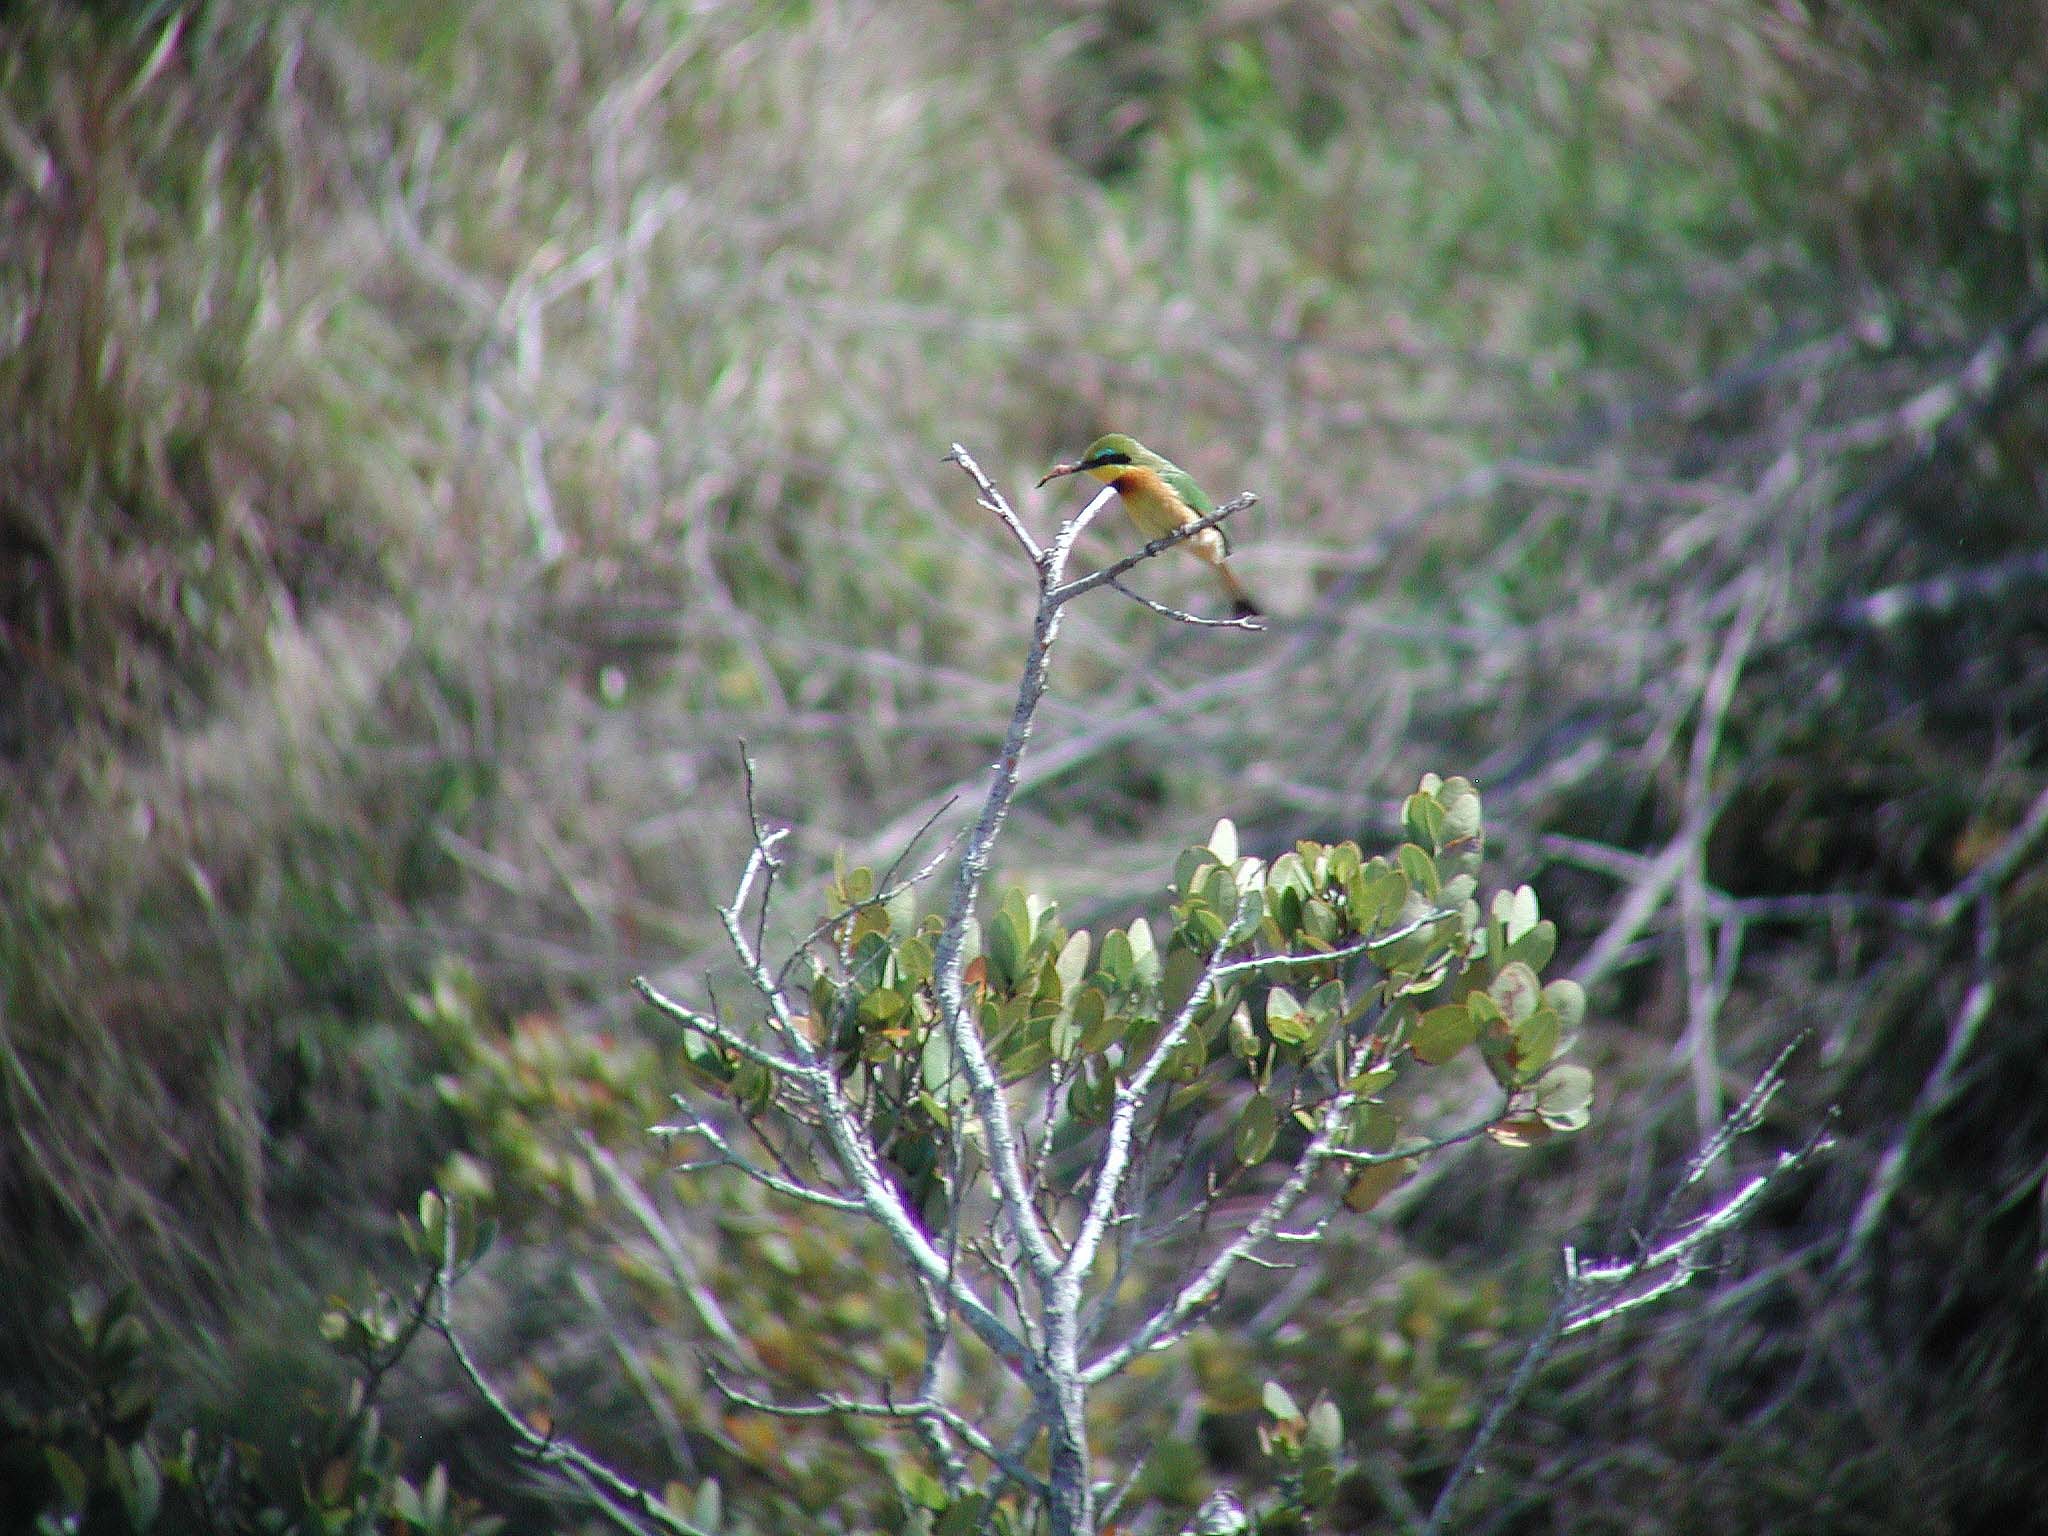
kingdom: Animalia
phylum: Chordata
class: Aves
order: Coraciiformes
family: Meropidae
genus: Merops
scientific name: Merops pusillus
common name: Little bee-eater
